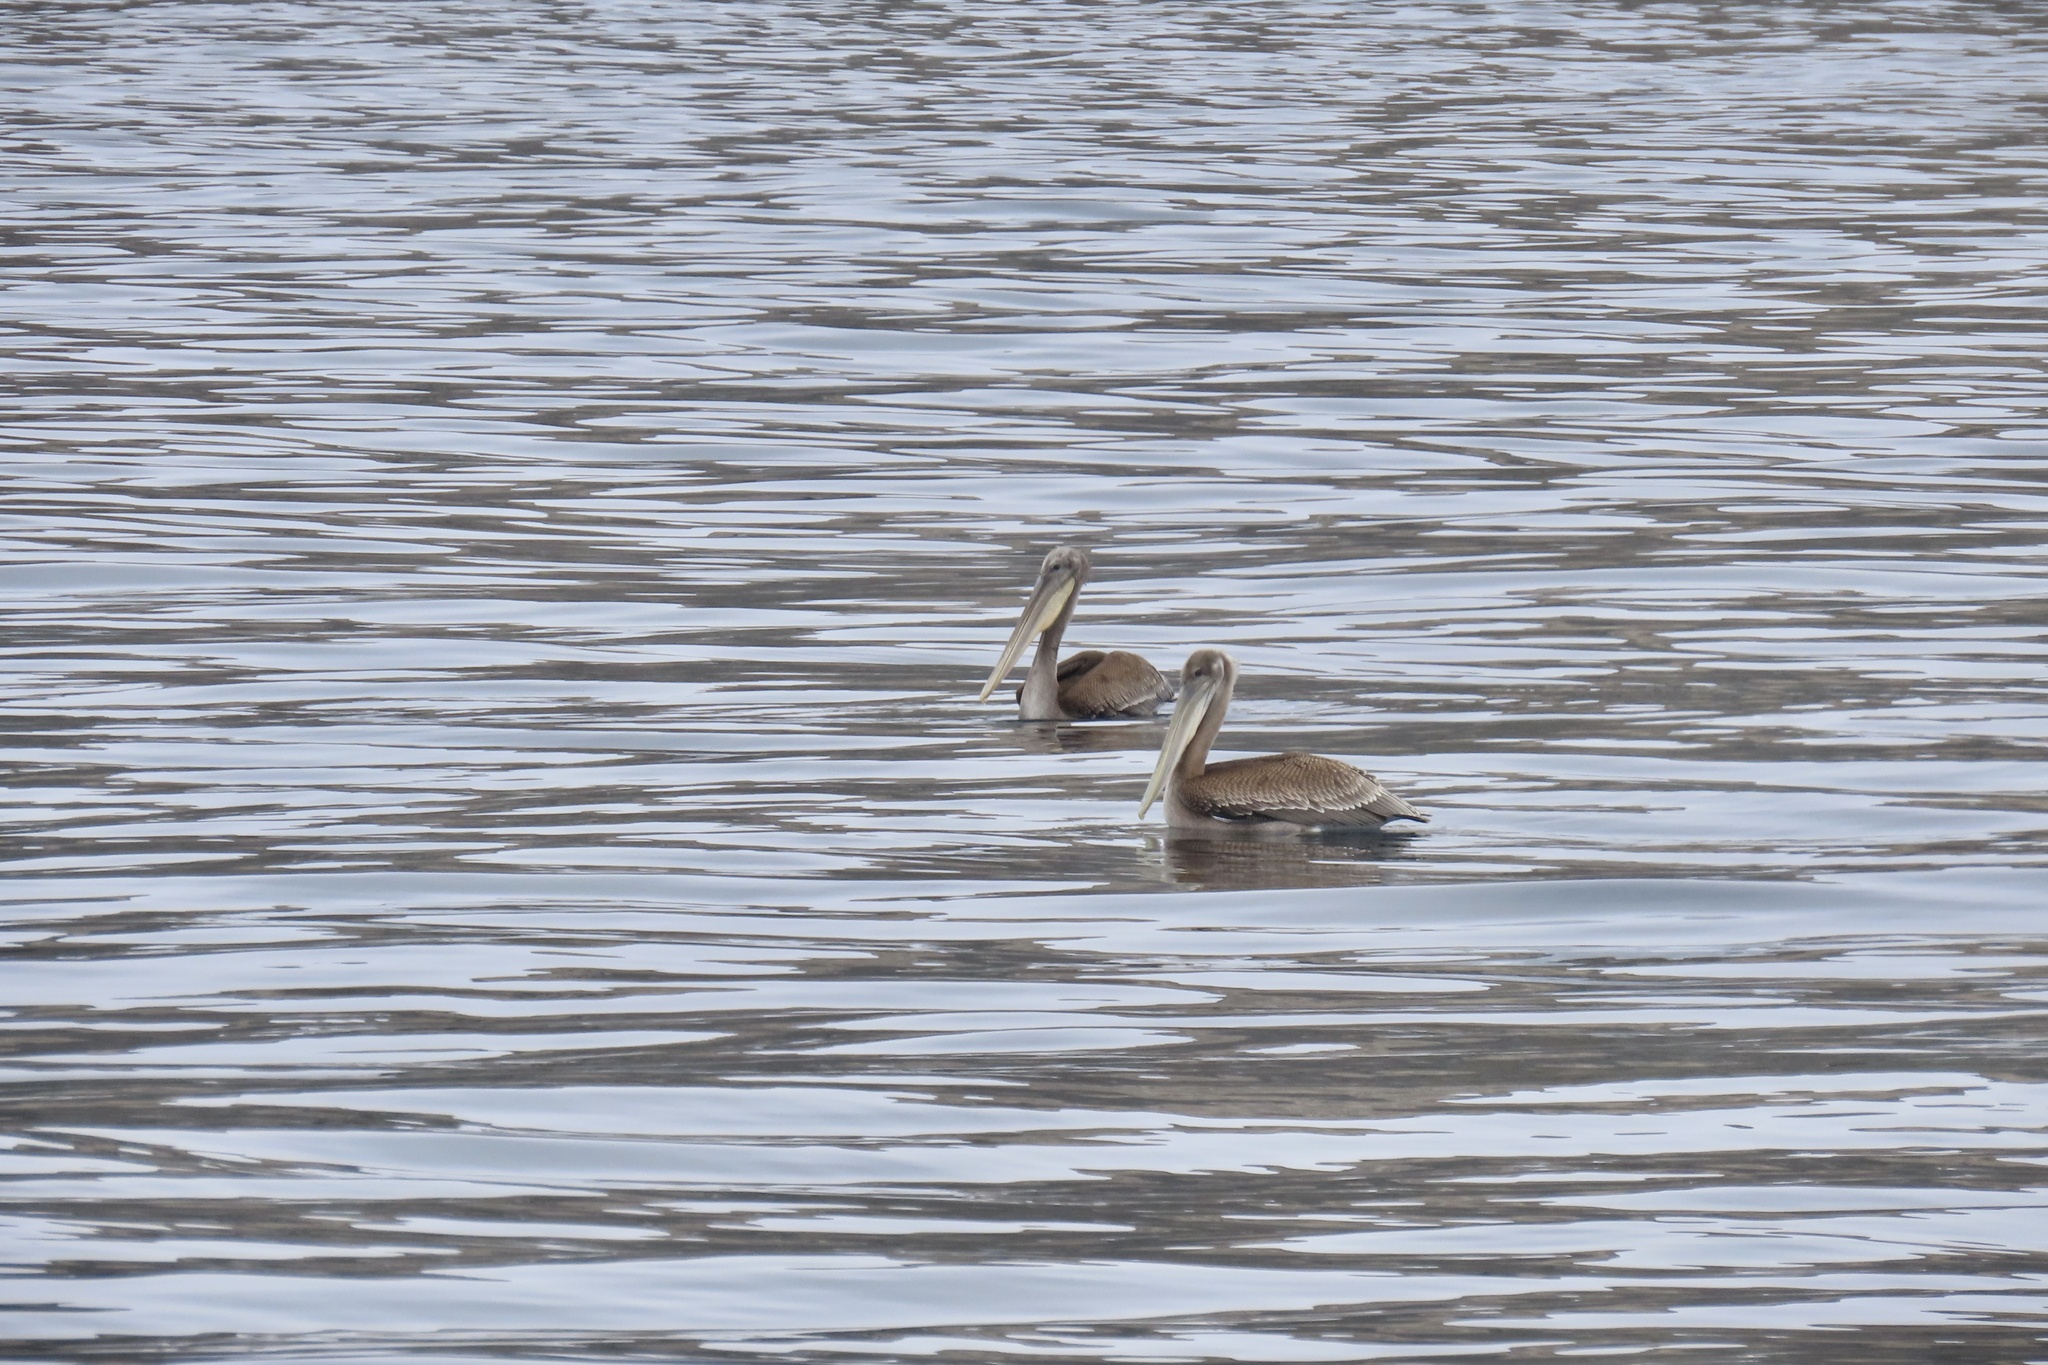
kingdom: Animalia
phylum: Chordata
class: Aves
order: Pelecaniformes
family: Pelecanidae
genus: Pelecanus
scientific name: Pelecanus occidentalis
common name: Brown pelican
